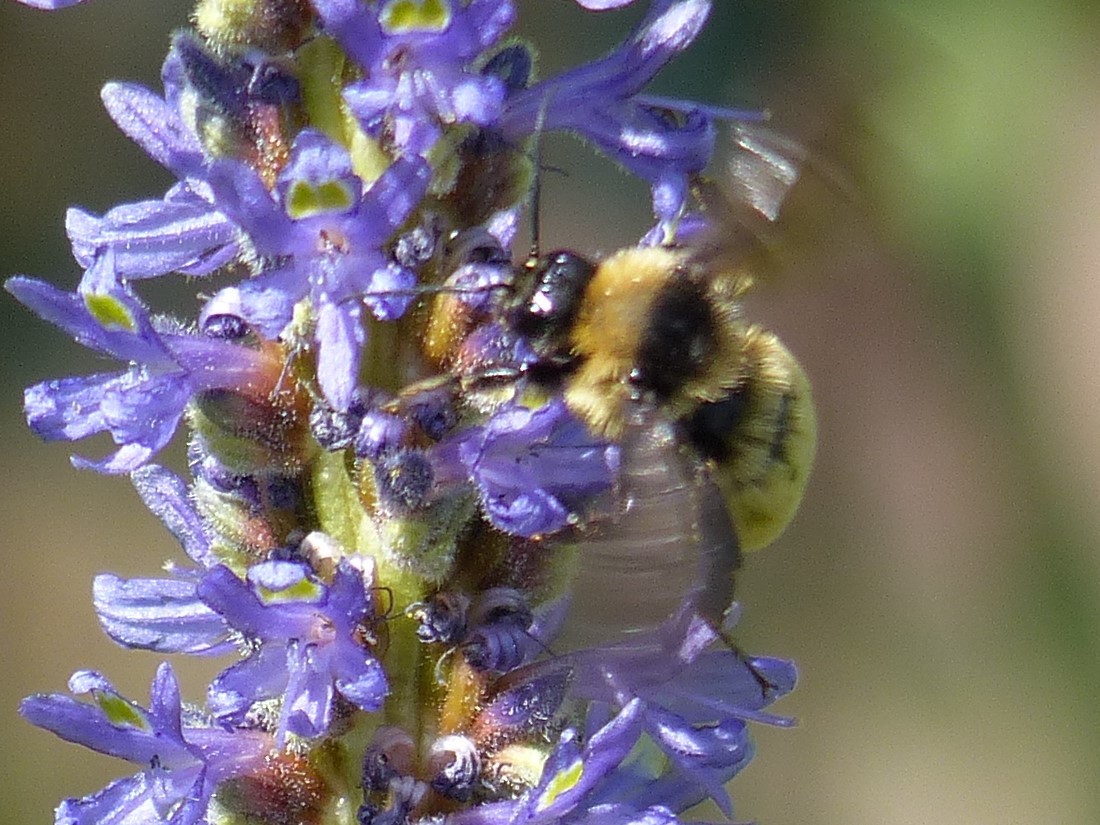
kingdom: Animalia
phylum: Arthropoda
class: Insecta
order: Hymenoptera
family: Apidae
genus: Bombus
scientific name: Bombus pensylvanicus
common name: Bumble bee
